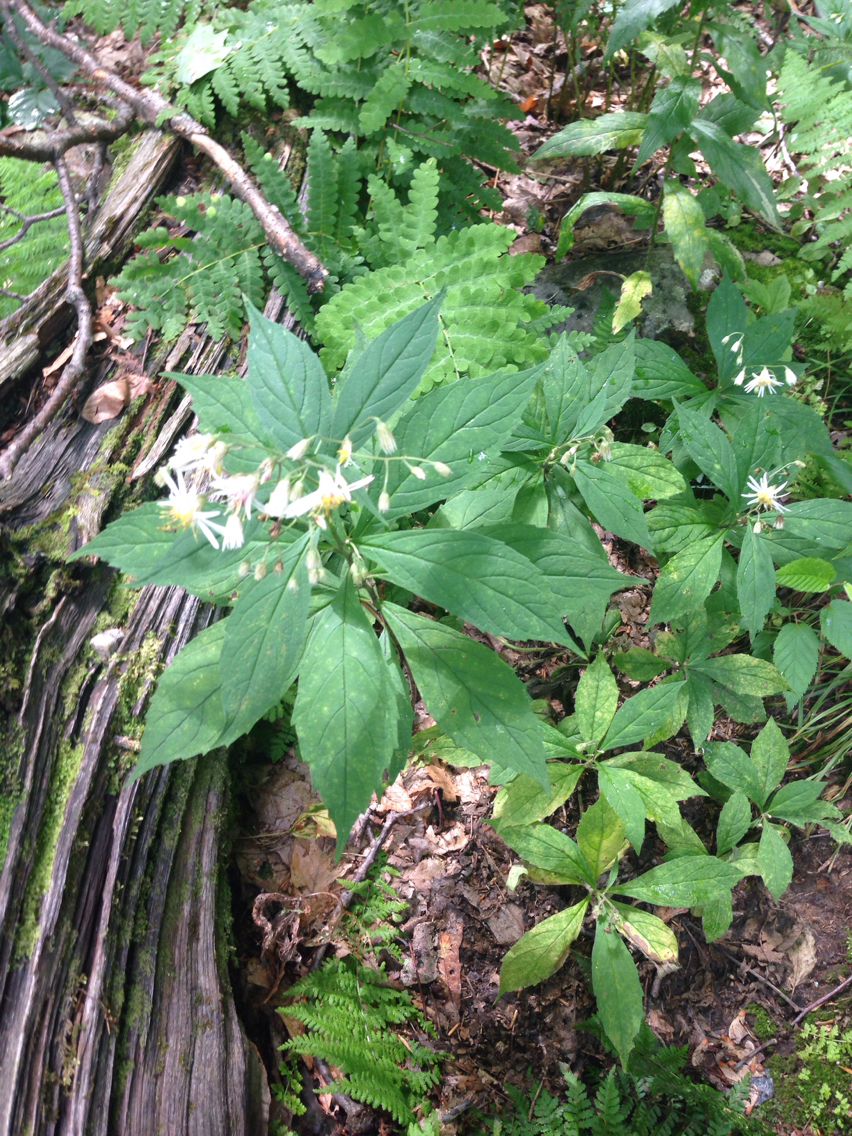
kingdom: Plantae
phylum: Tracheophyta
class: Magnoliopsida
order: Asterales
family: Asteraceae
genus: Oclemena
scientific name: Oclemena acuminata
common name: Mountain aster
